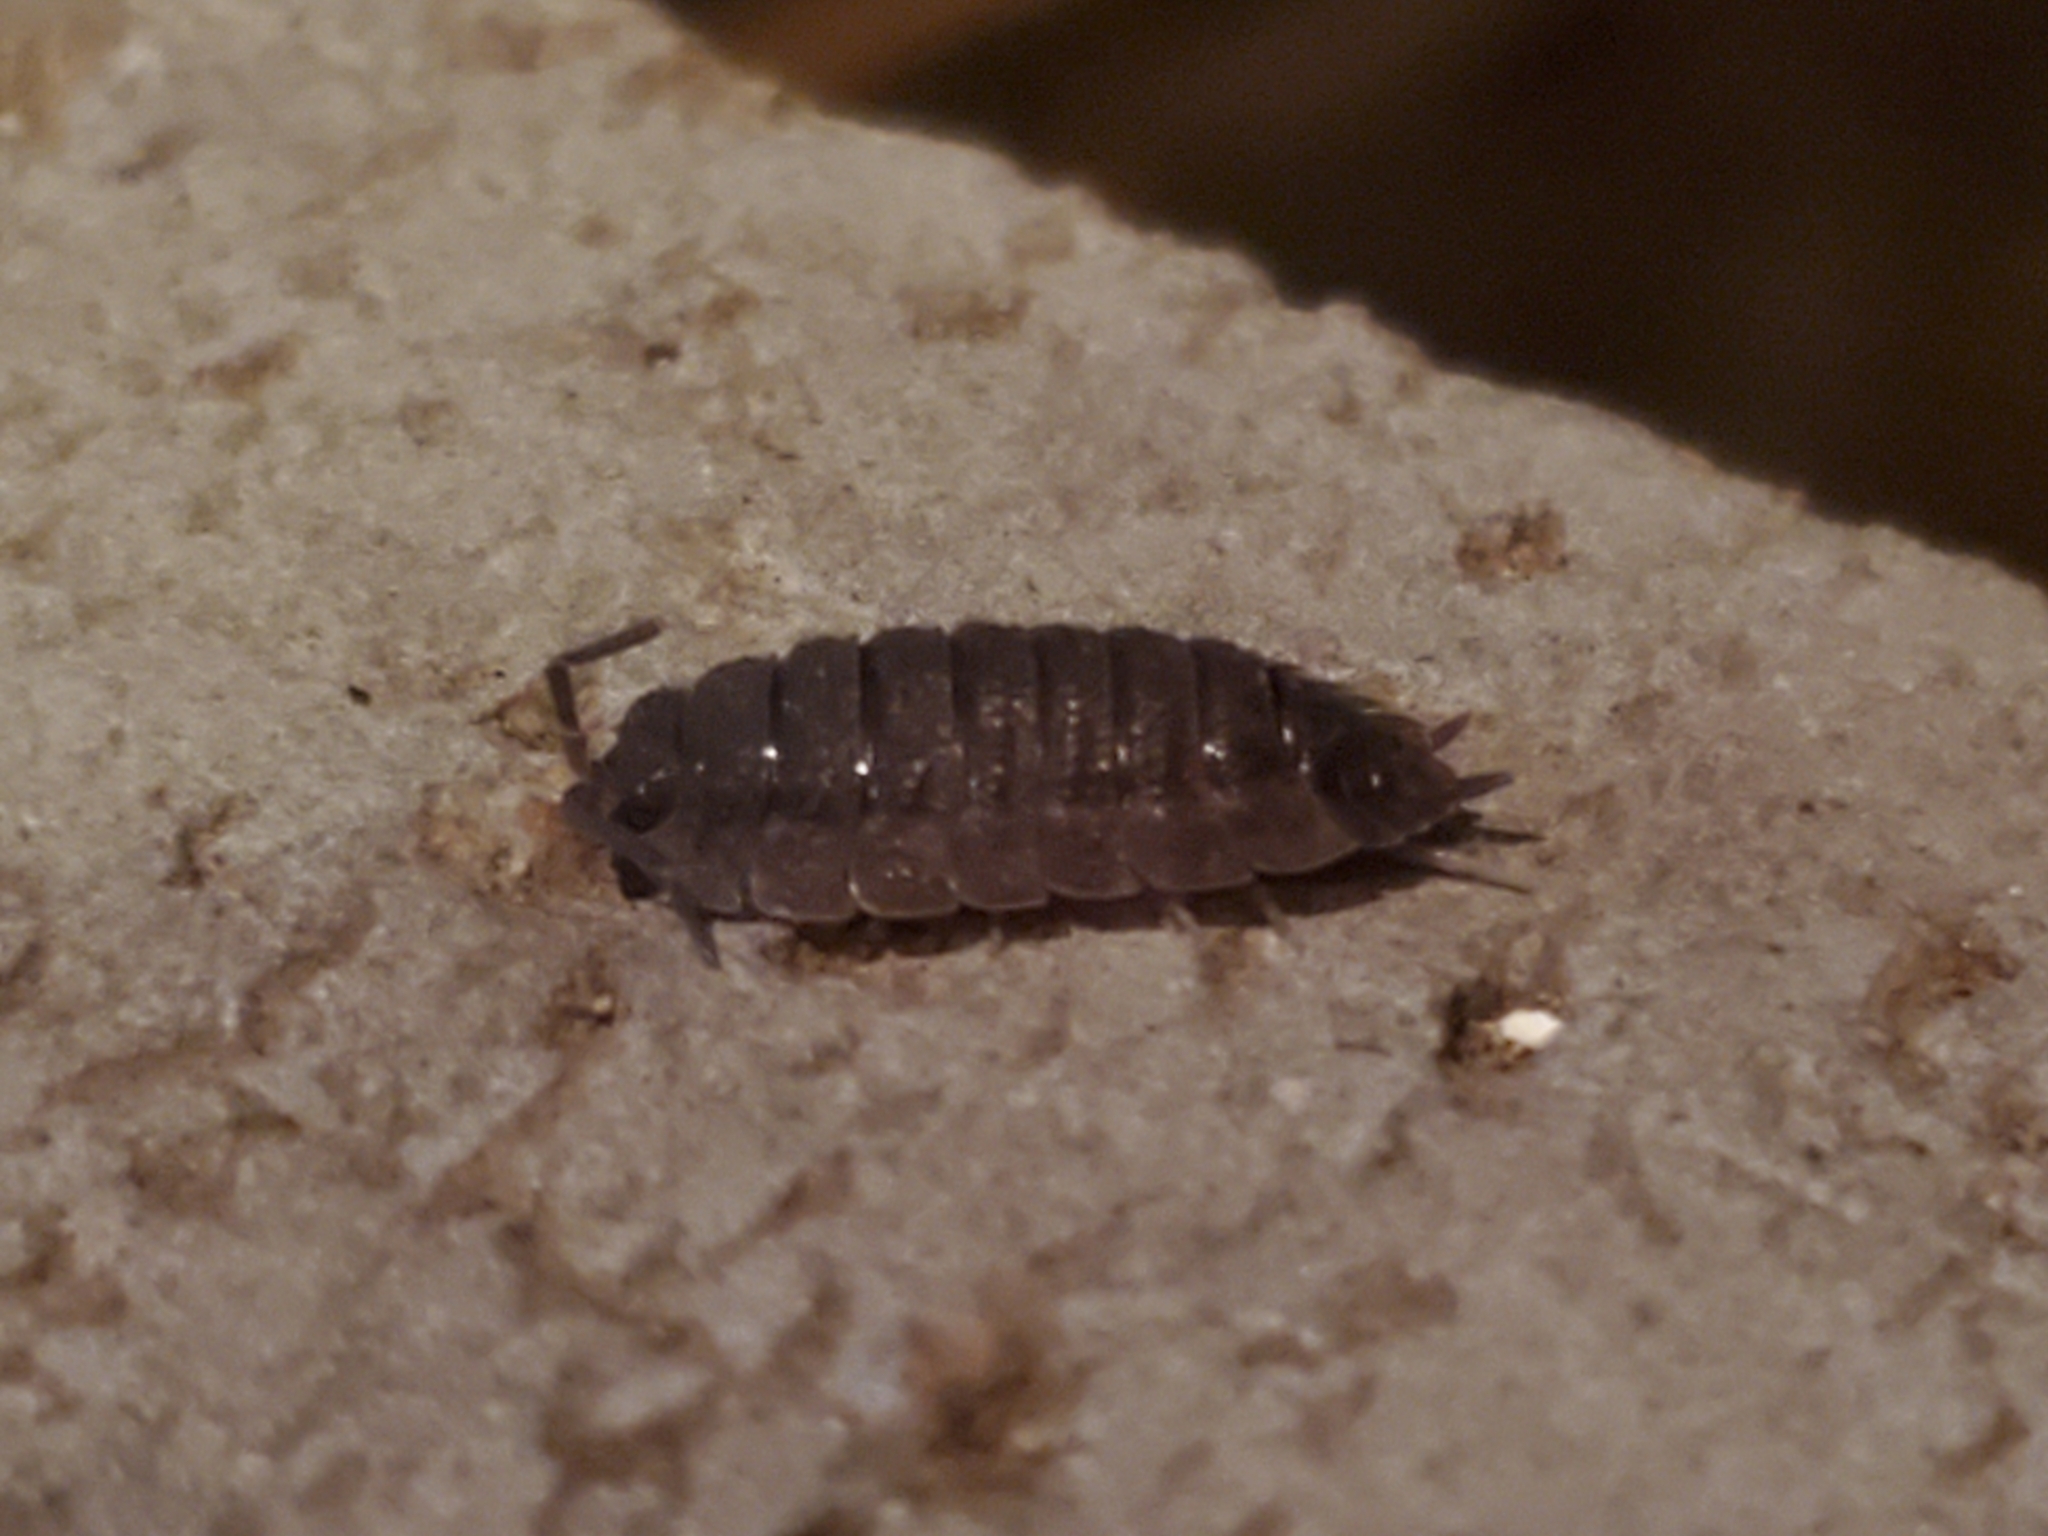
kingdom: Animalia
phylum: Arthropoda
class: Malacostraca
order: Isopoda
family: Porcellionidae
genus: Porcellio
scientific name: Porcellio scaber
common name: Common rough woodlouse
